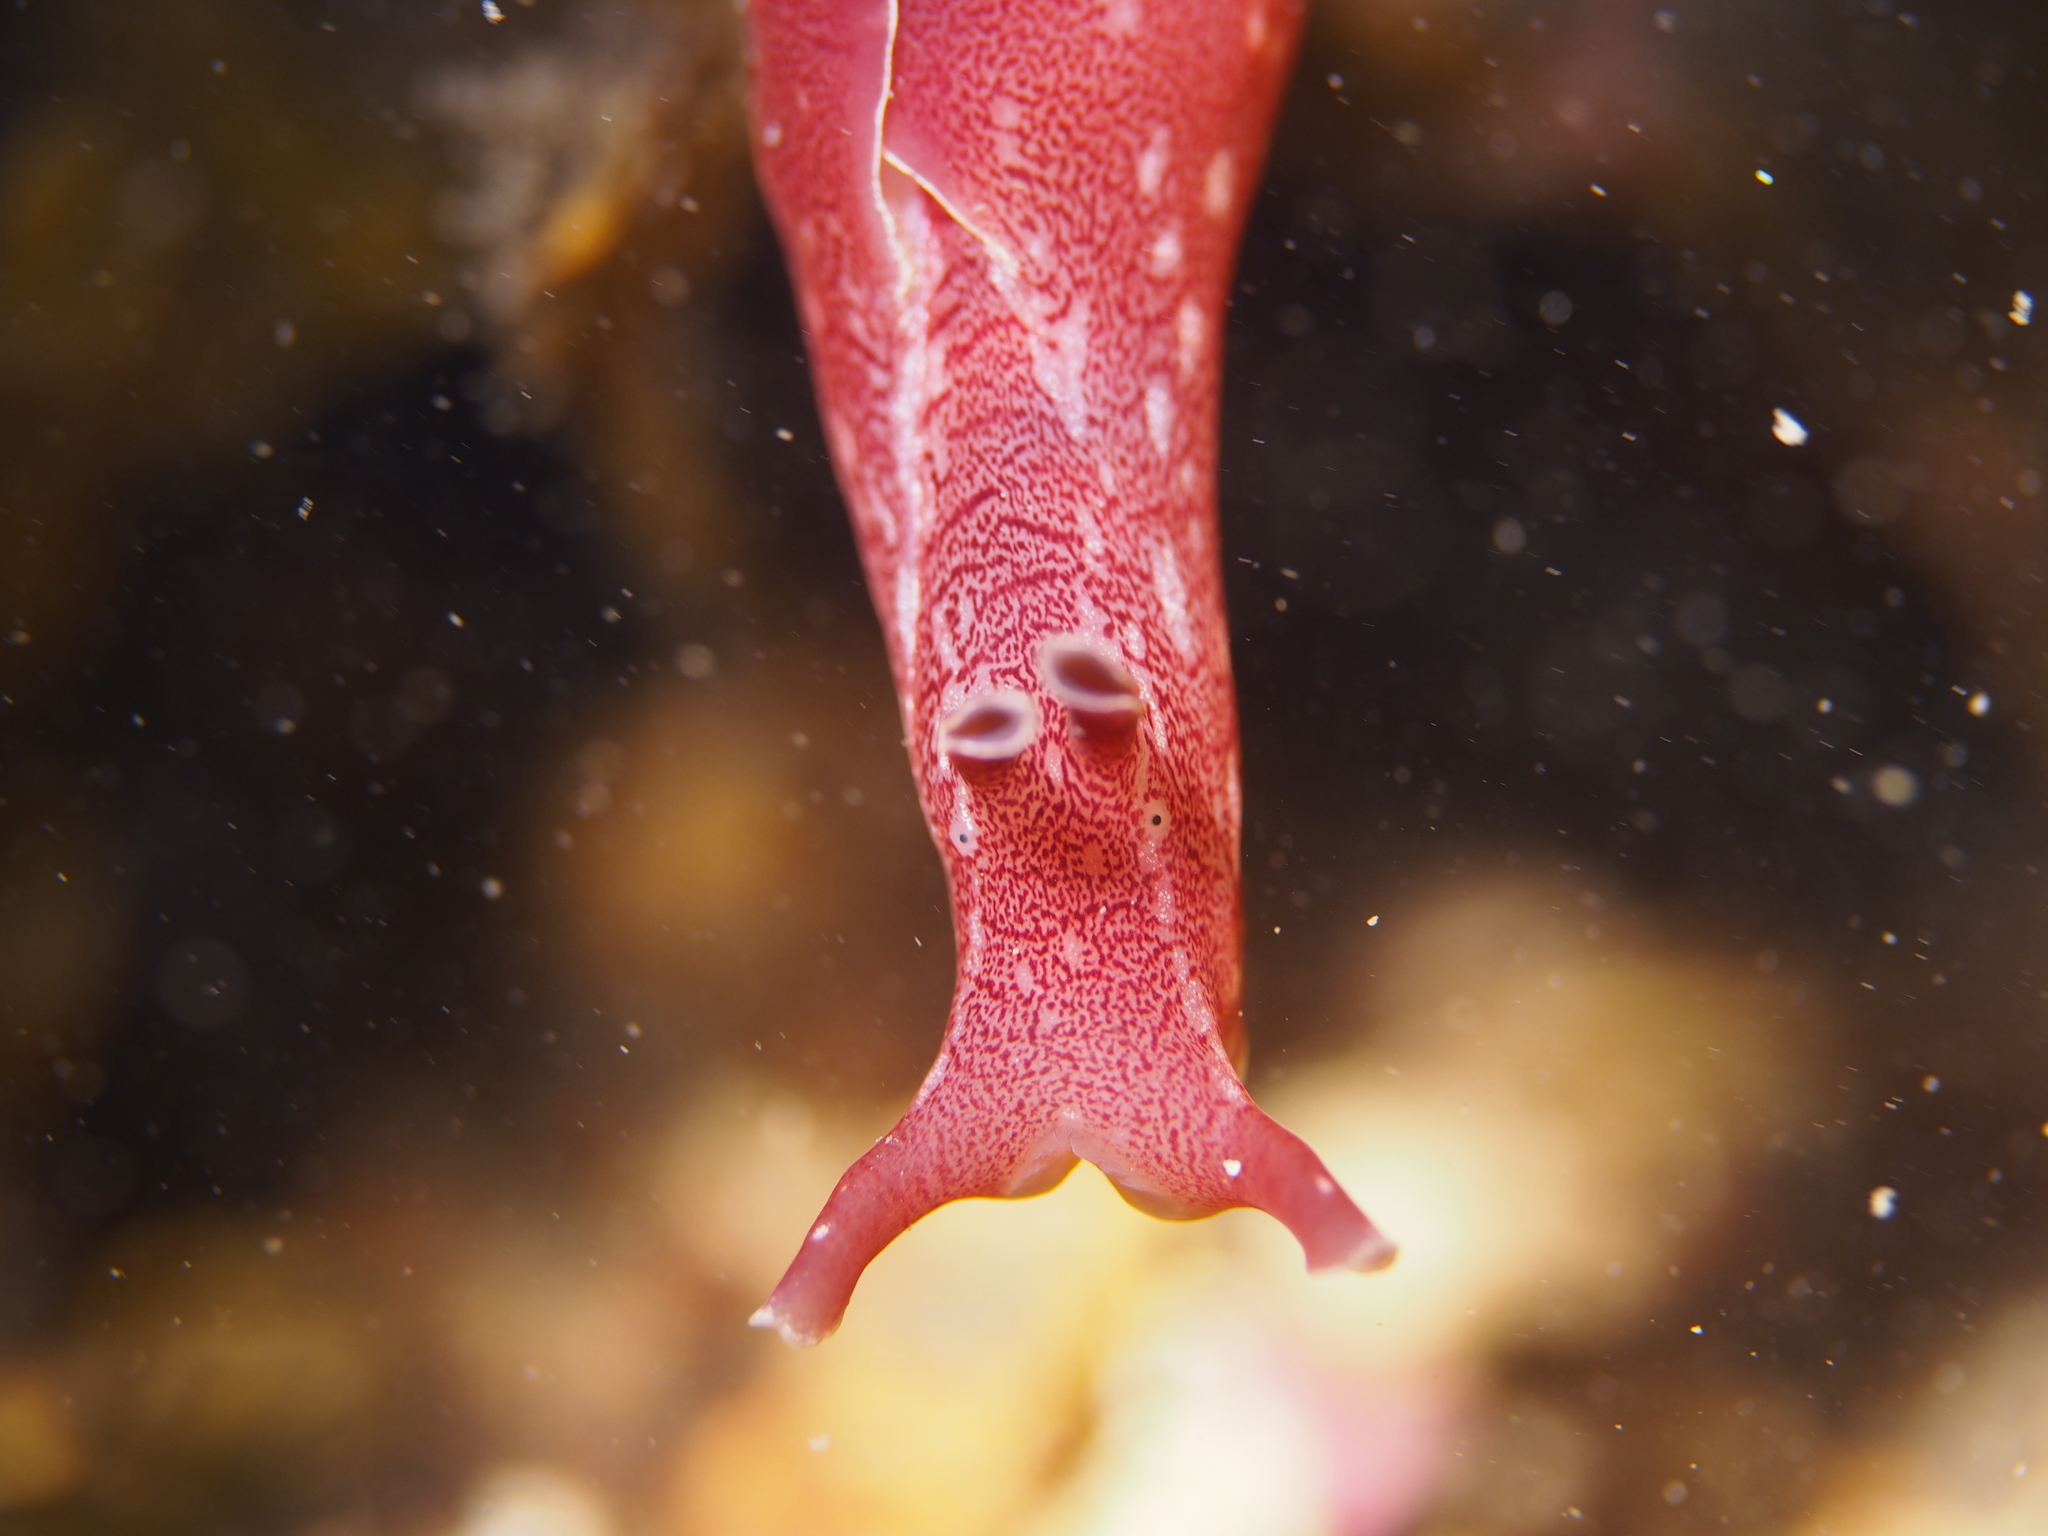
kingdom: Animalia
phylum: Mollusca
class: Gastropoda
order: Aplysiida
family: Aplysiidae
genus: Aplysia
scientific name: Aplysia punctata
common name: Common sea hare
